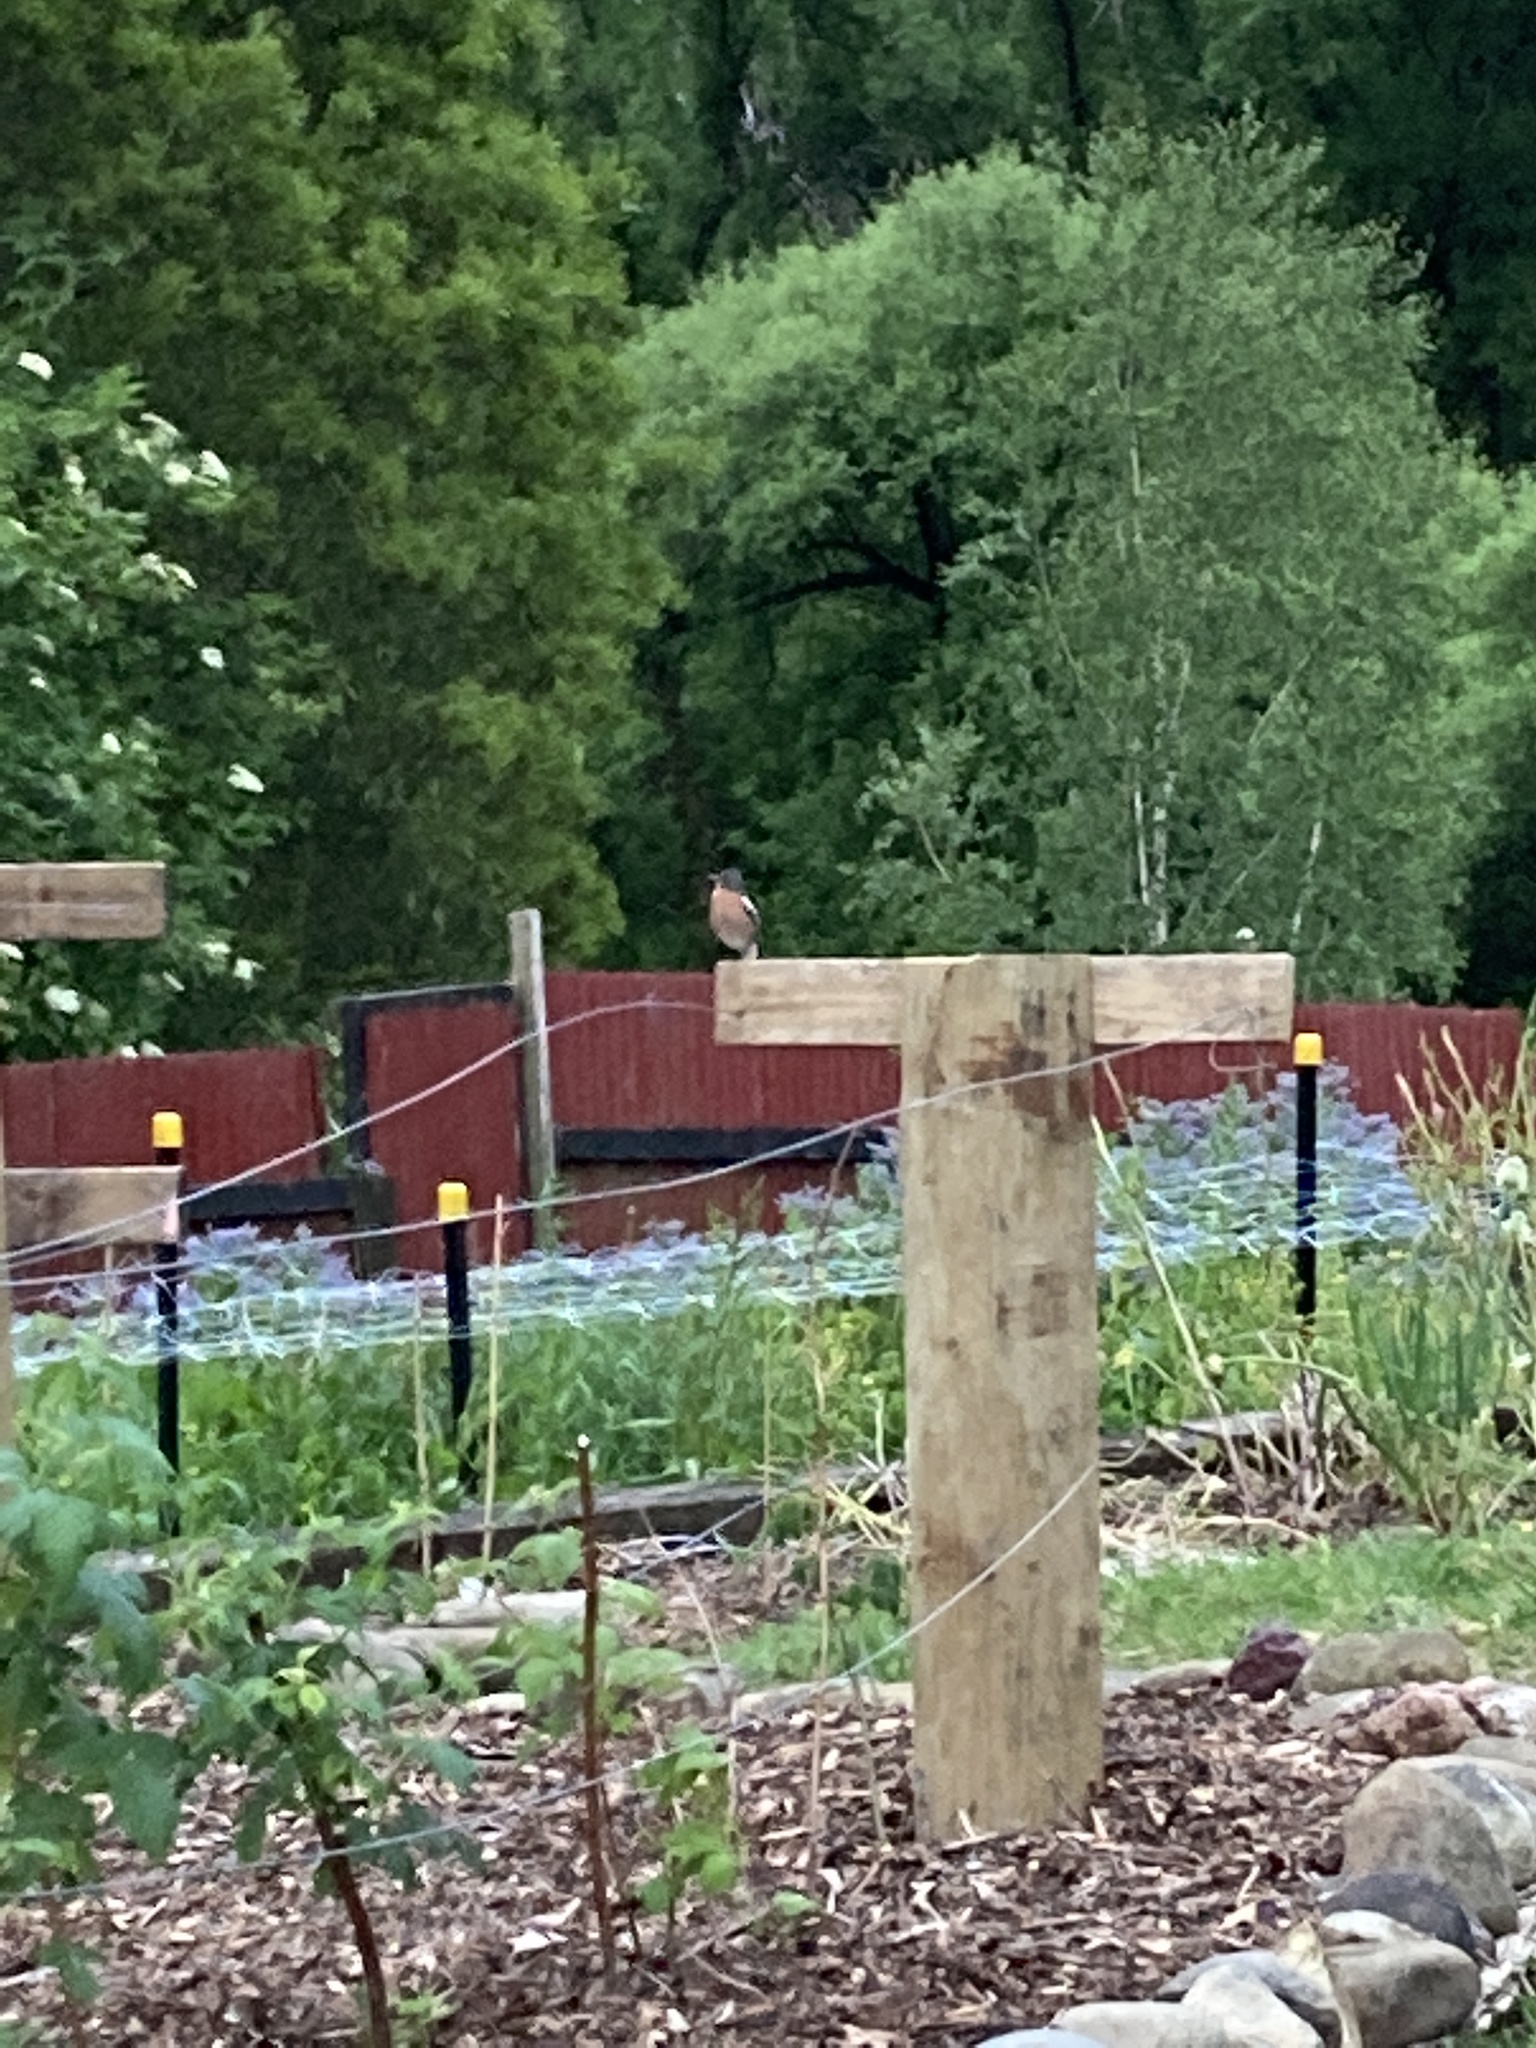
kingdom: Animalia
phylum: Chordata
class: Aves
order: Passeriformes
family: Fringillidae
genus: Fringilla
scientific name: Fringilla coelebs
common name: Common chaffinch
